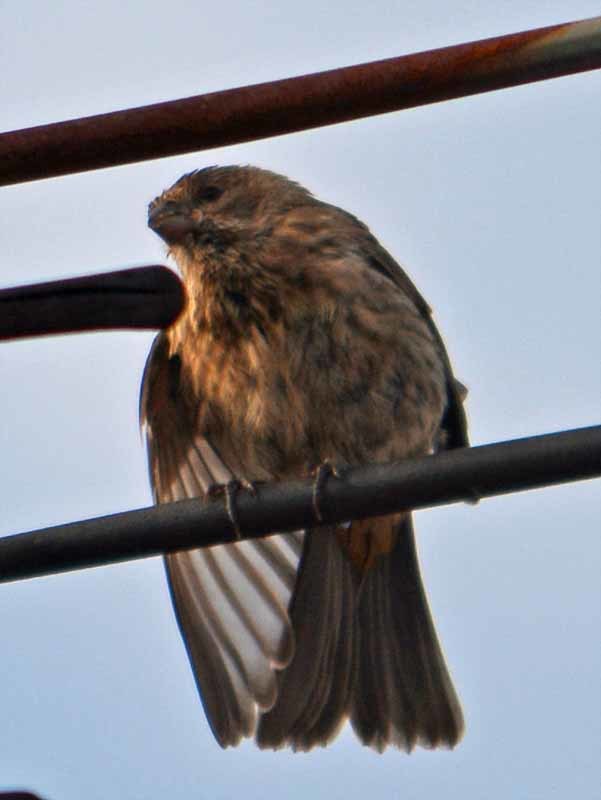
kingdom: Animalia
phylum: Chordata
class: Aves
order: Passeriformes
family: Fringillidae
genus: Haemorhous
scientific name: Haemorhous mexicanus
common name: House finch
